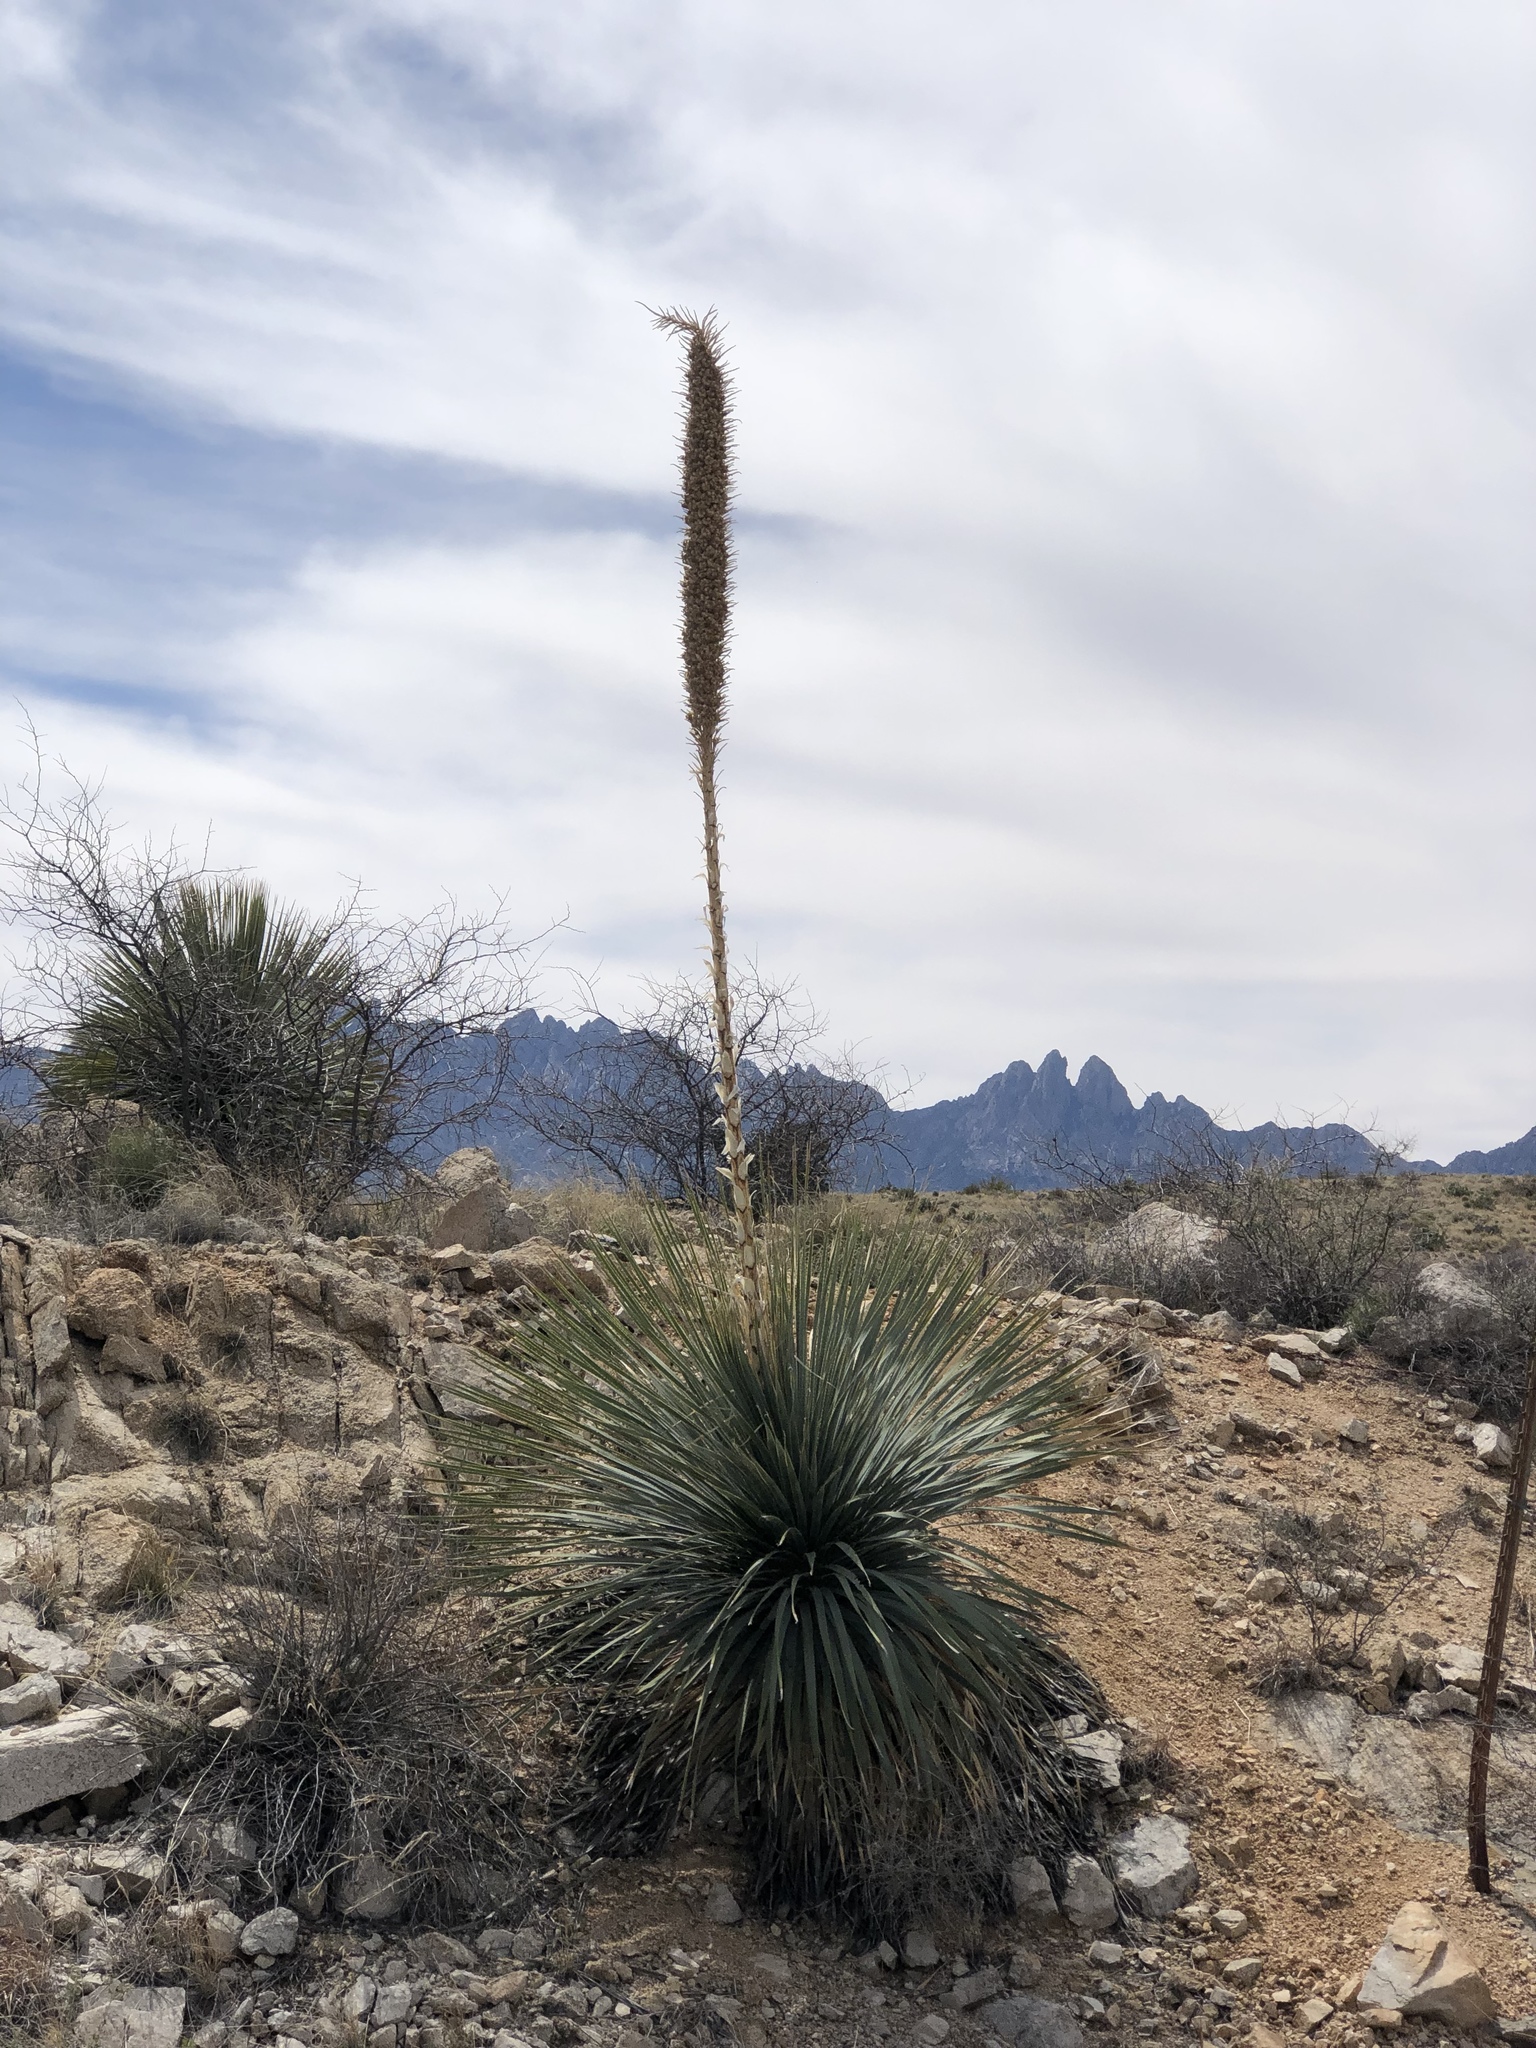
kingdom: Plantae
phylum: Tracheophyta
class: Liliopsida
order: Asparagales
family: Asparagaceae
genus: Dasylirion
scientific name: Dasylirion wheeleri
